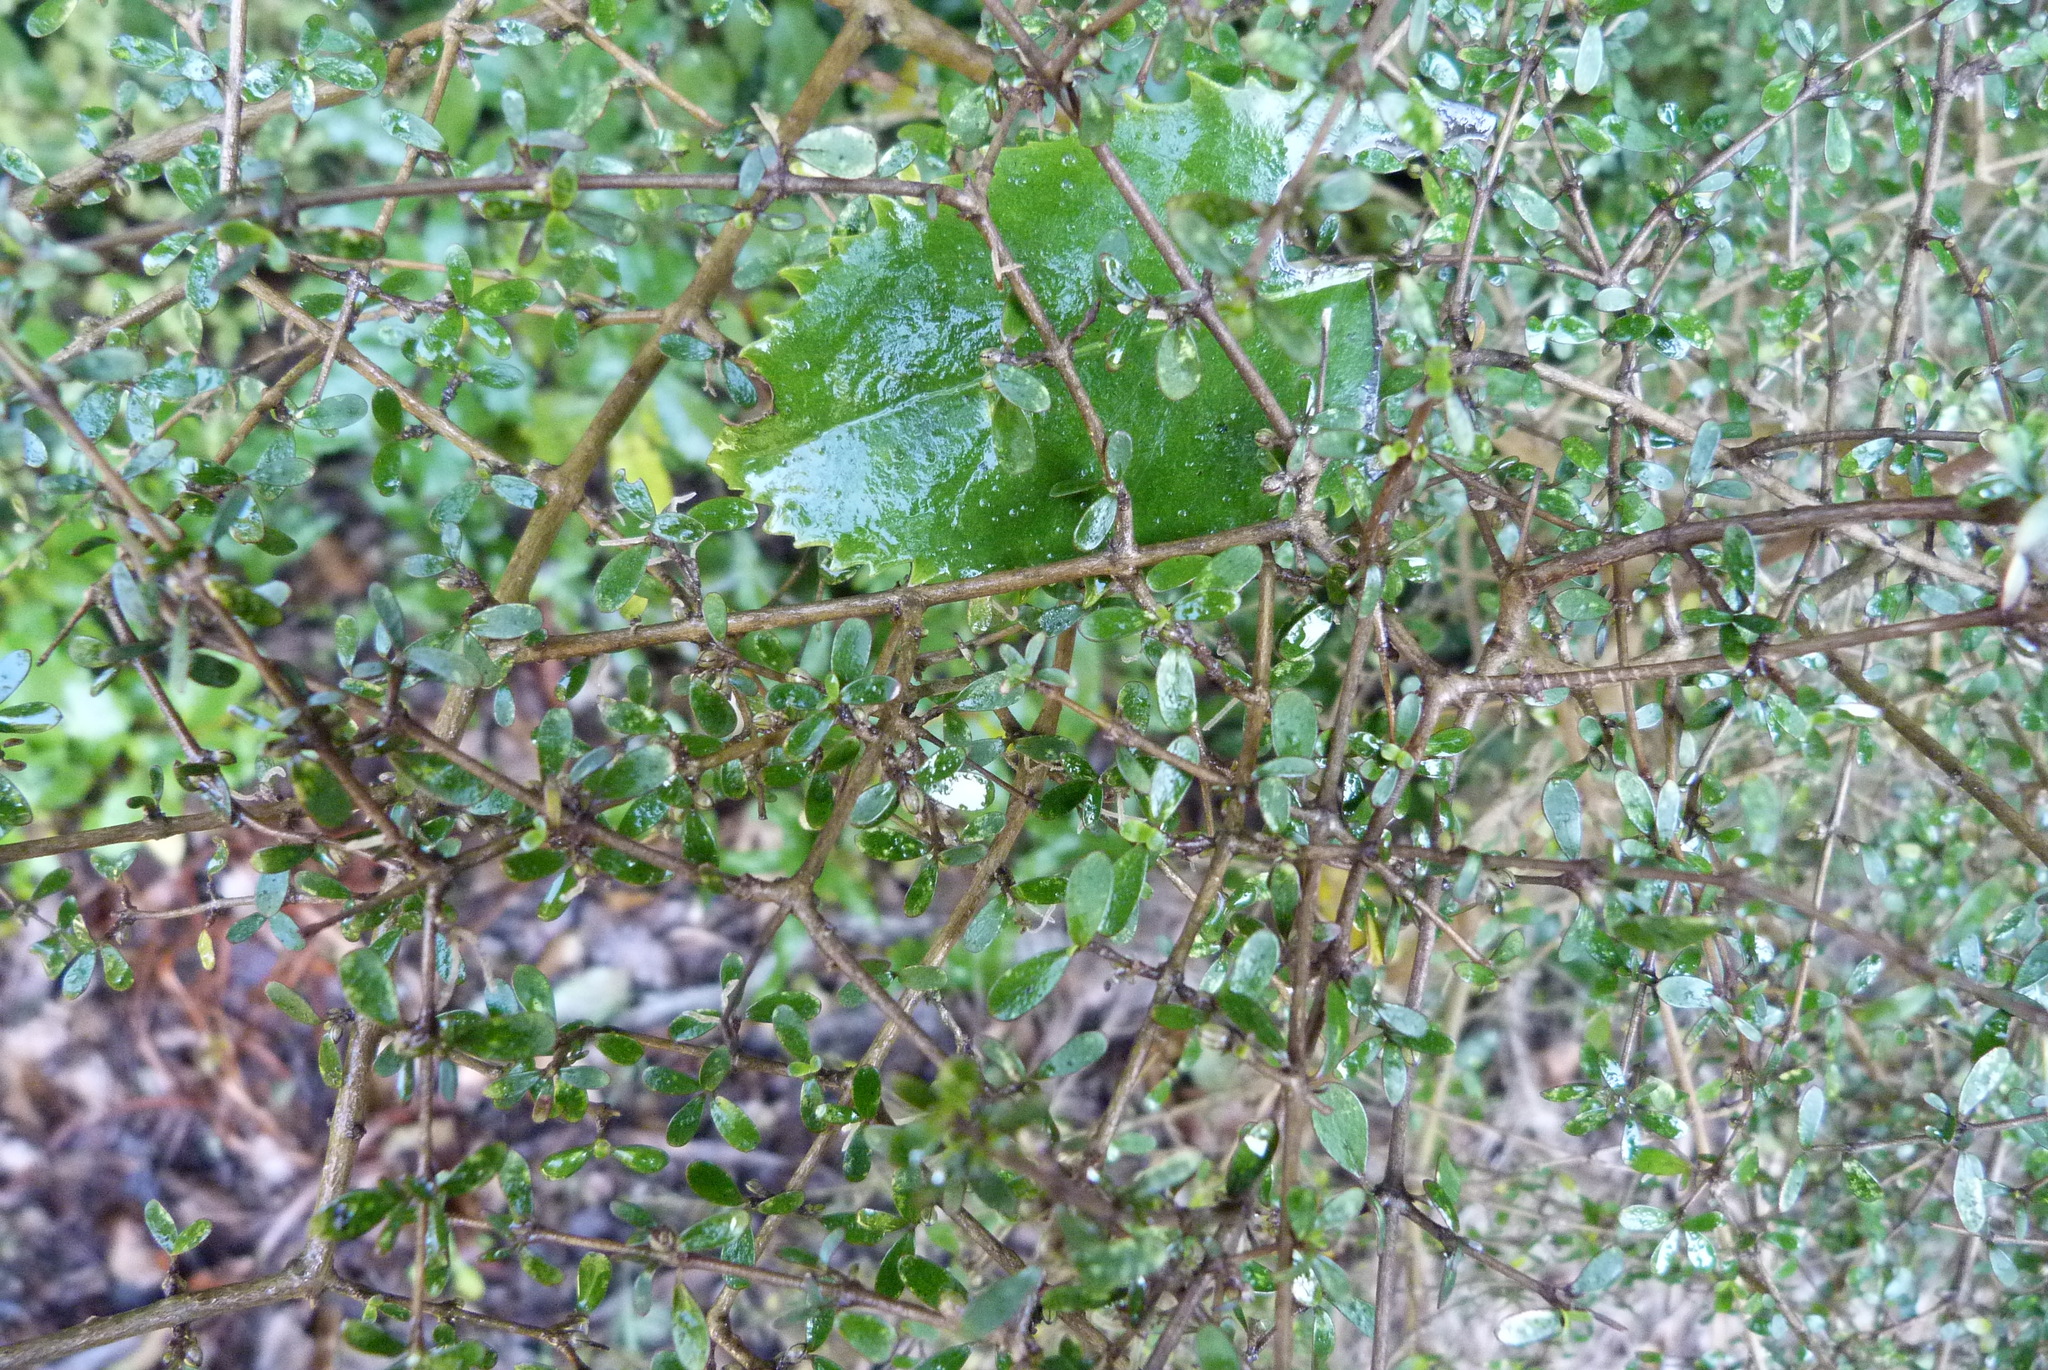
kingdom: Plantae
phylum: Tracheophyta
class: Magnoliopsida
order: Gentianales
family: Rubiaceae
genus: Coprosma
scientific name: Coprosma dumosa
